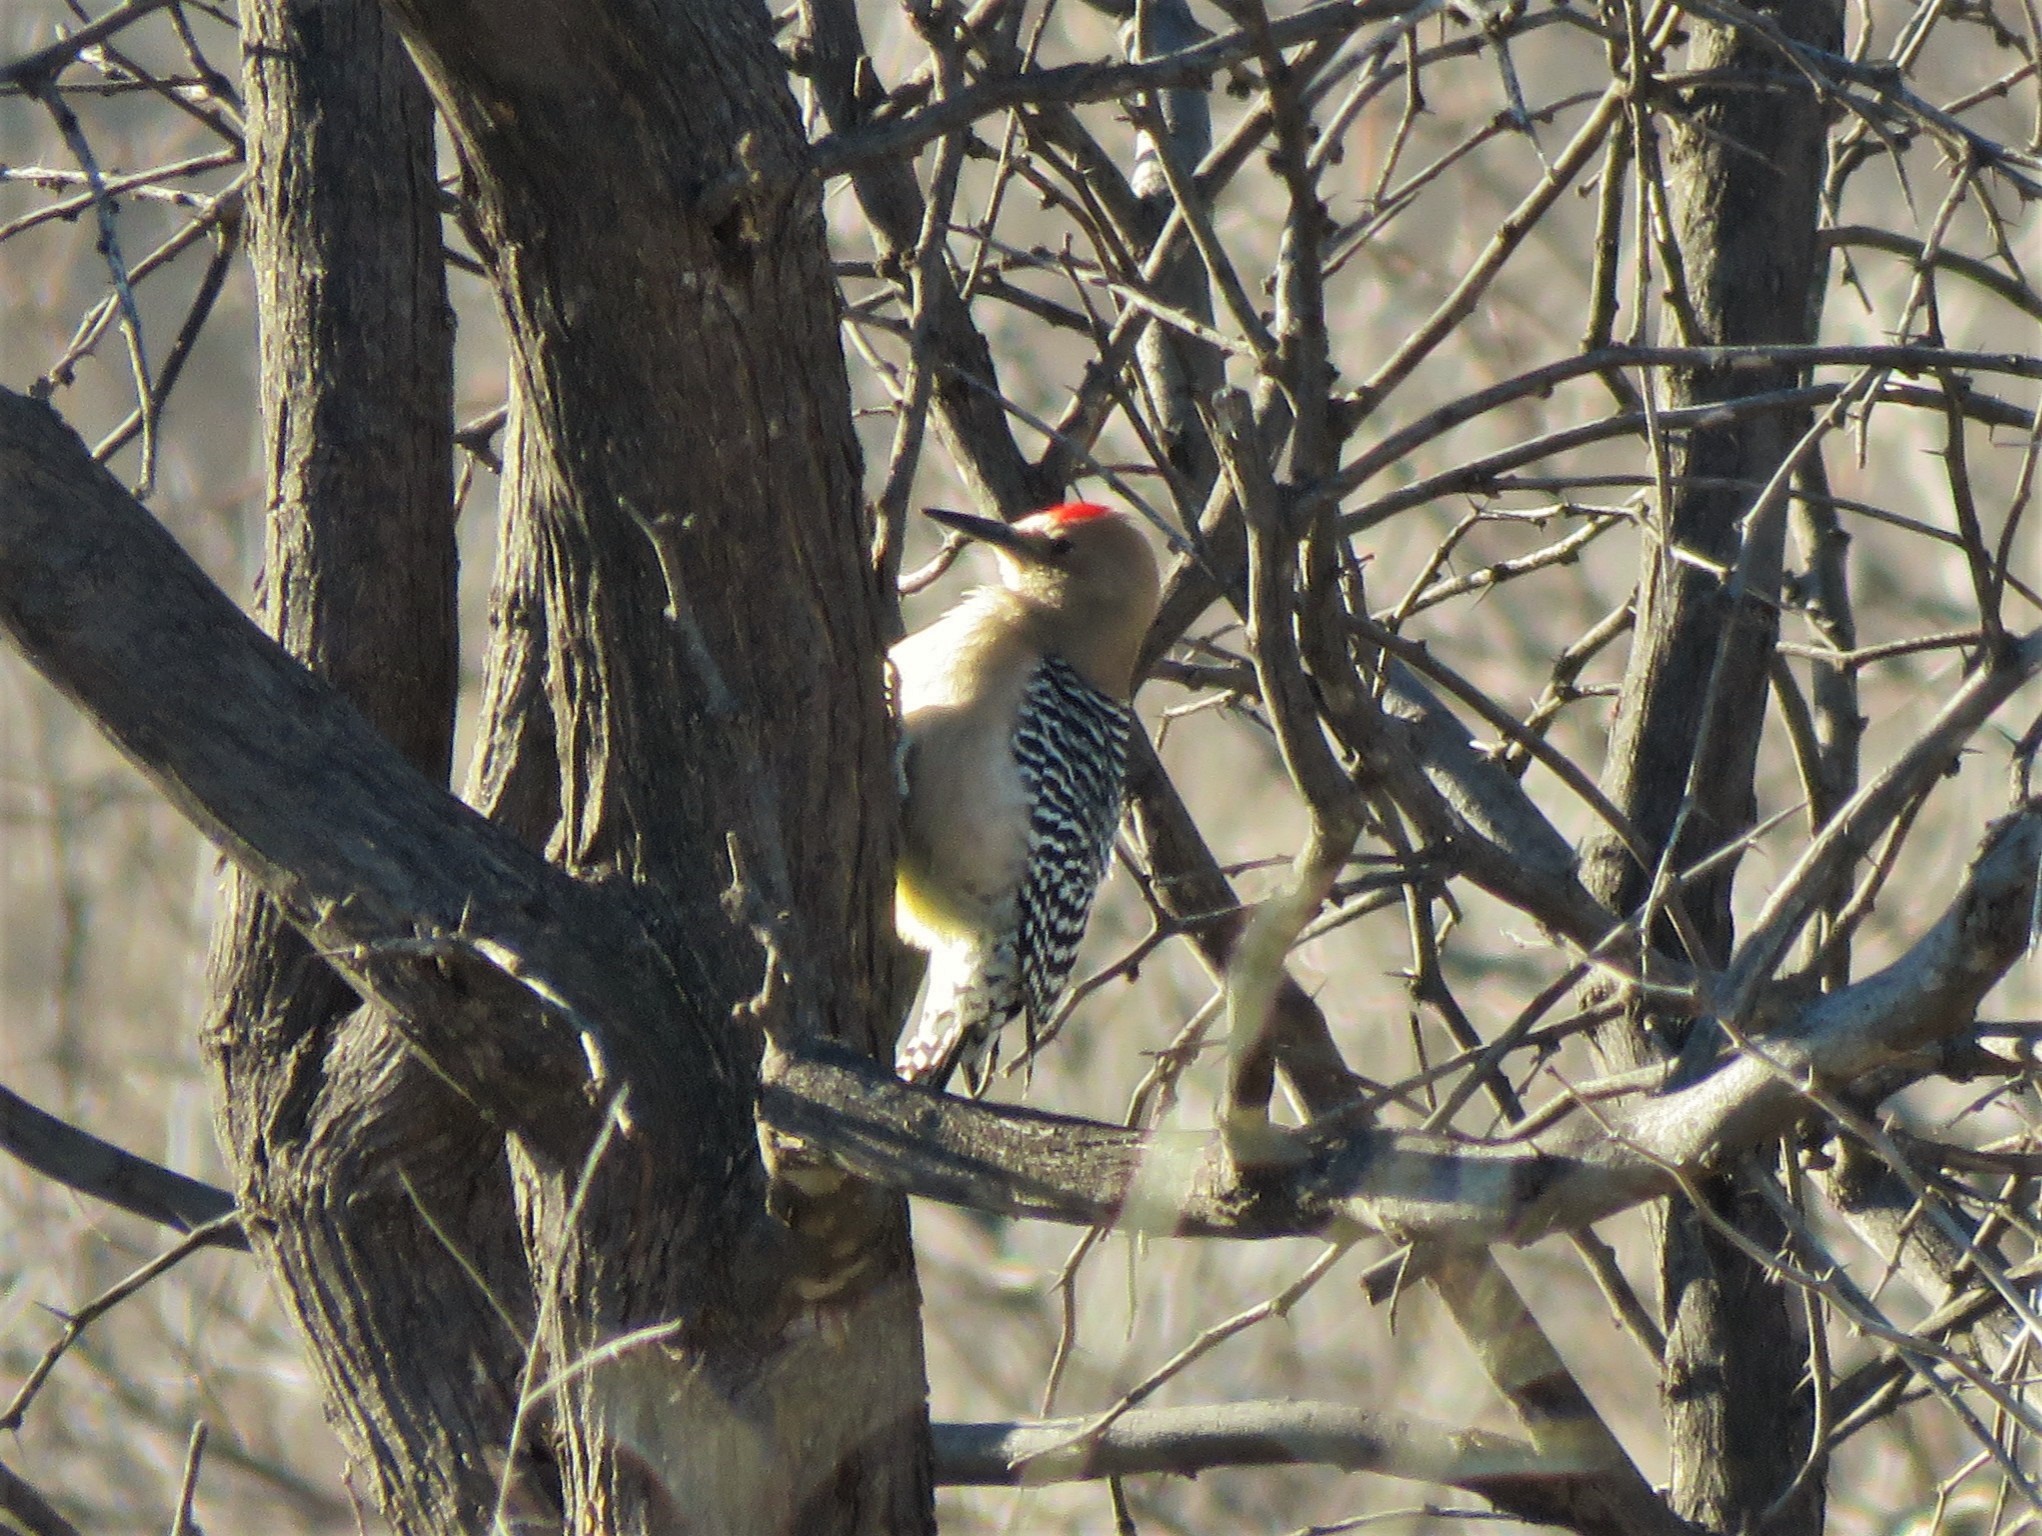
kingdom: Animalia
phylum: Chordata
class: Aves
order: Piciformes
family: Picidae
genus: Melanerpes
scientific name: Melanerpes uropygialis
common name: Gila woodpecker
